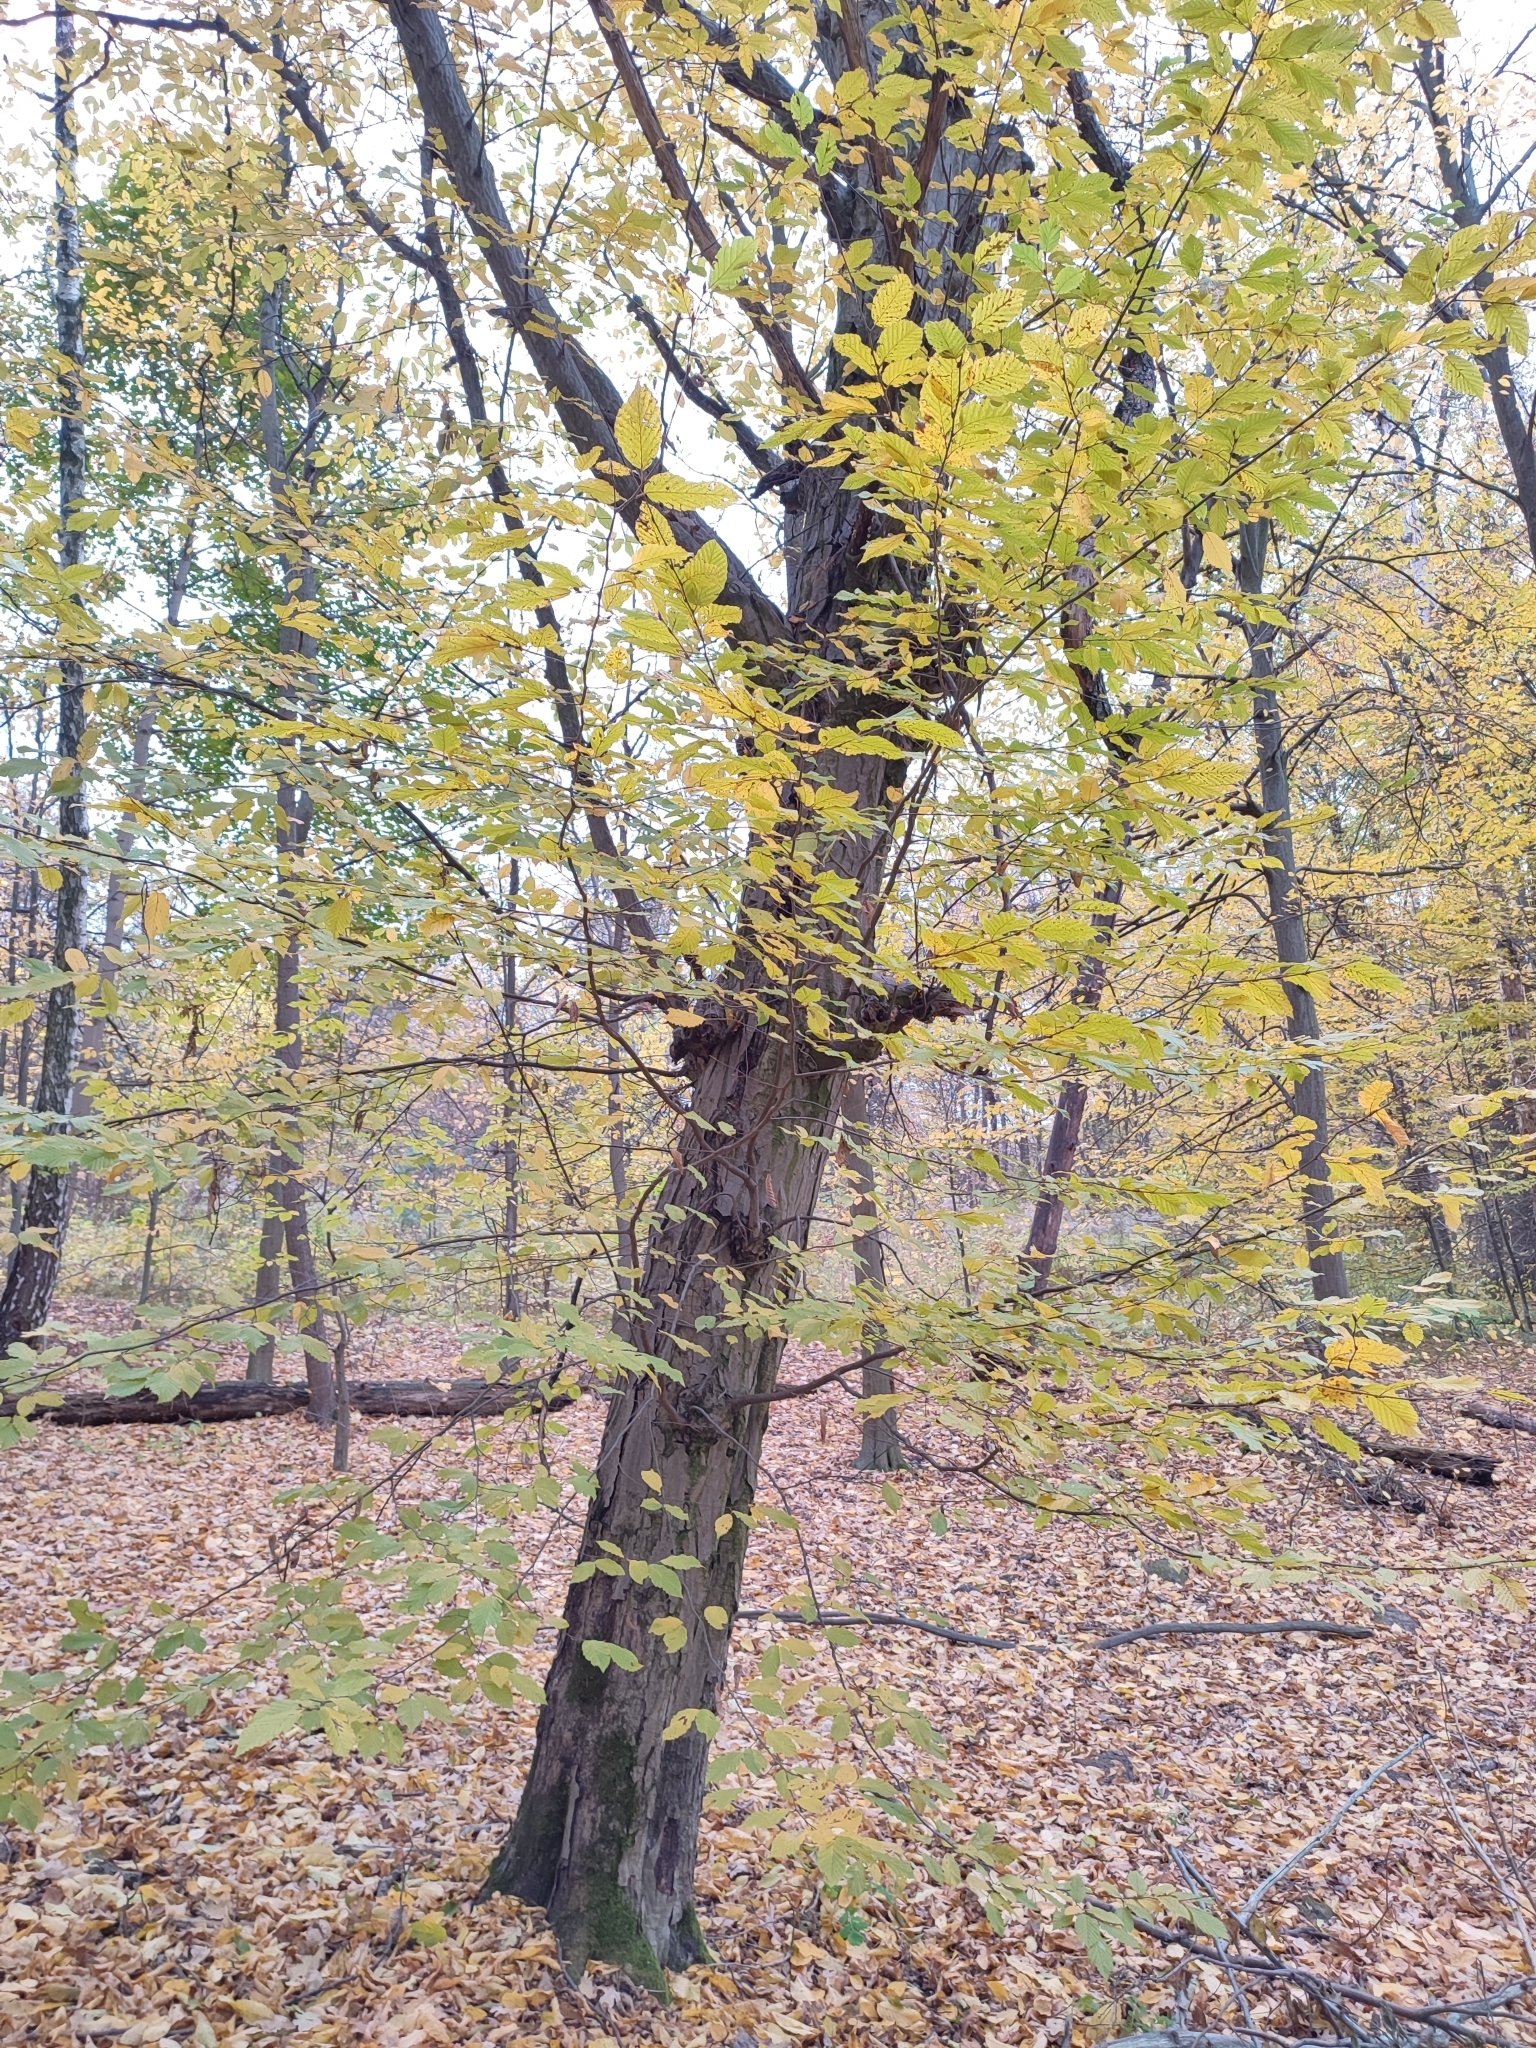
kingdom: Plantae
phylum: Tracheophyta
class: Magnoliopsida
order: Fagales
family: Betulaceae
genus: Carpinus
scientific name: Carpinus betulus
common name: Hornbeam
